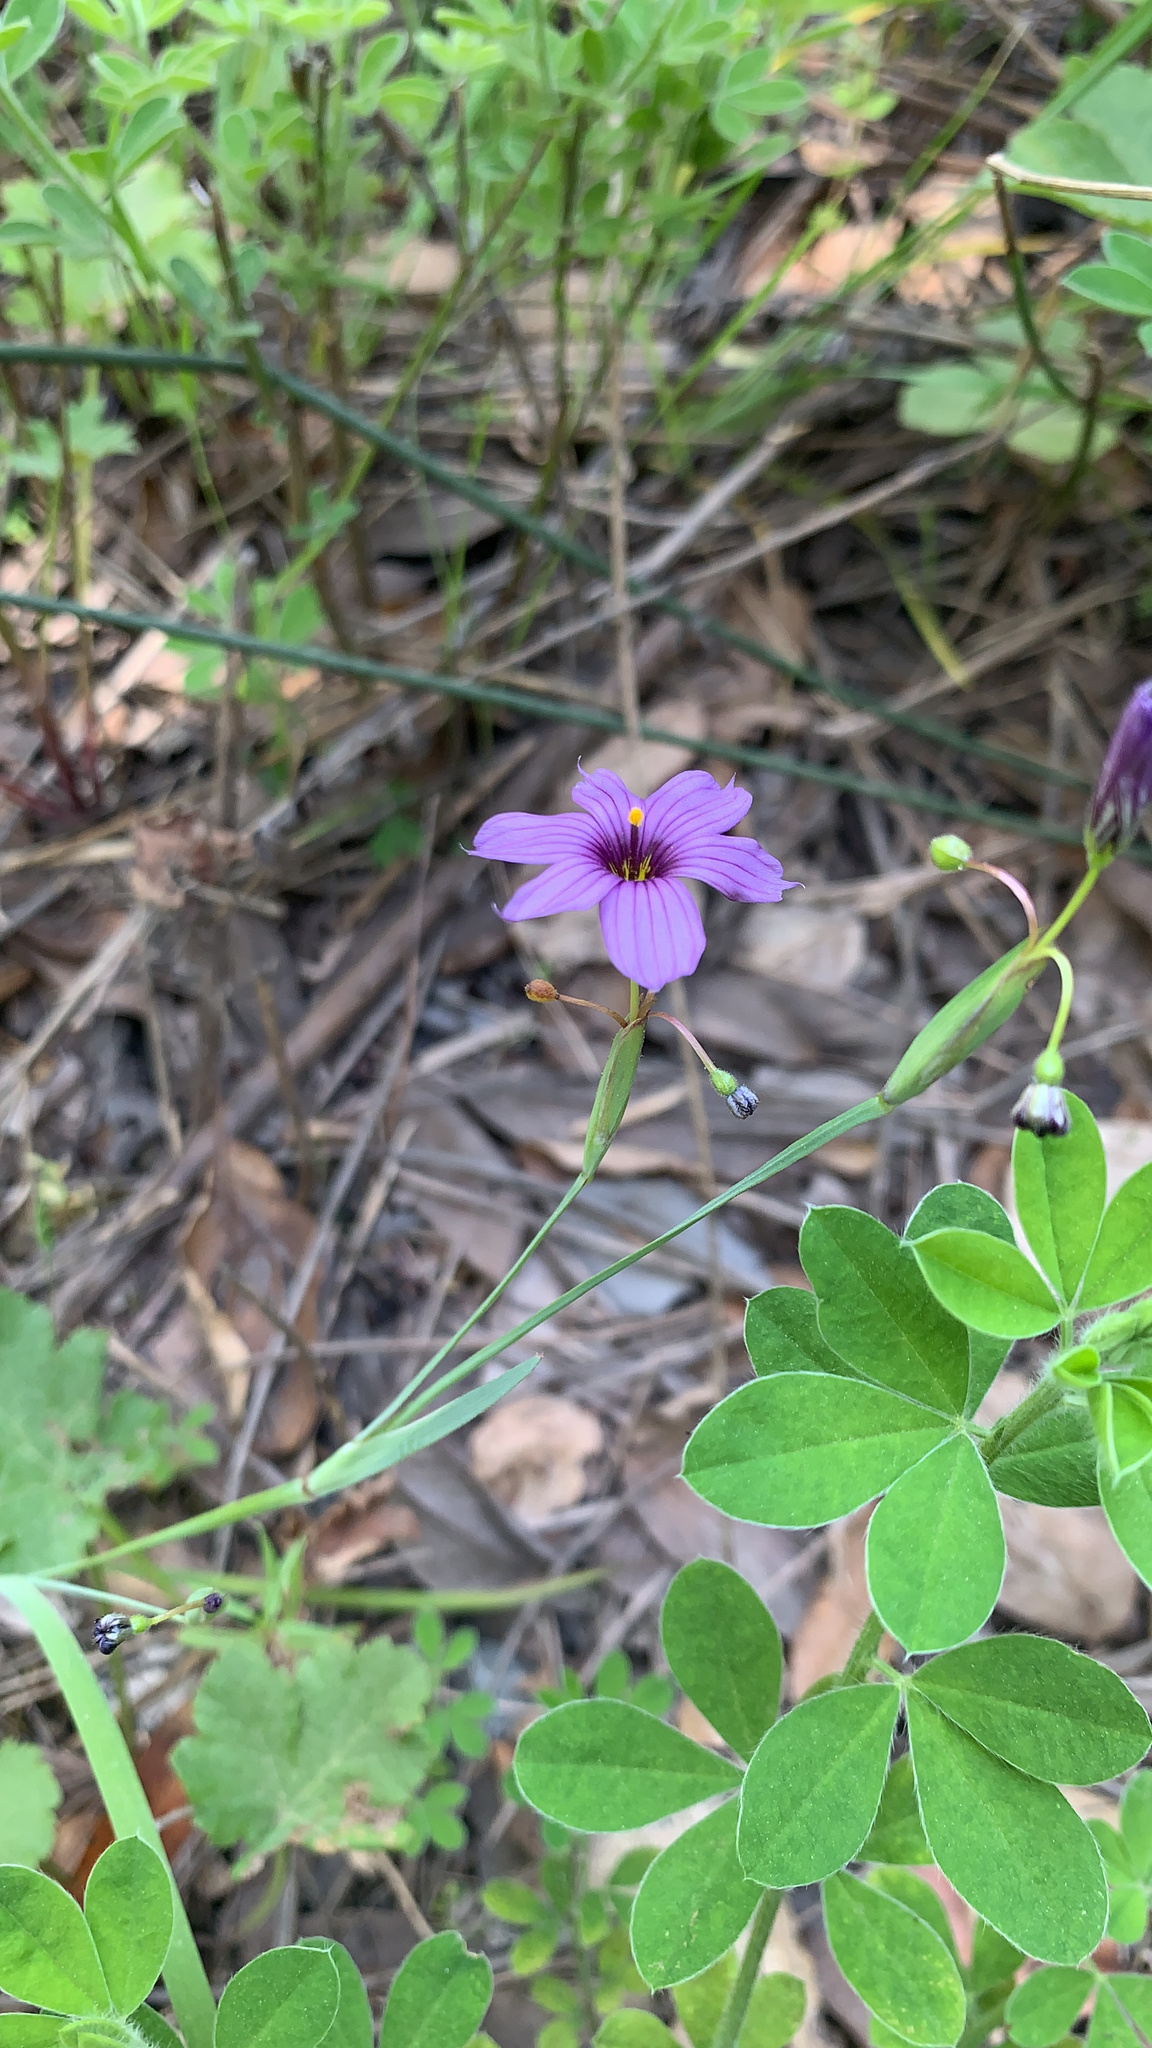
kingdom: Plantae
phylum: Tracheophyta
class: Liliopsida
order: Asparagales
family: Iridaceae
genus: Sisyrinchium
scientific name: Sisyrinchium bellum
